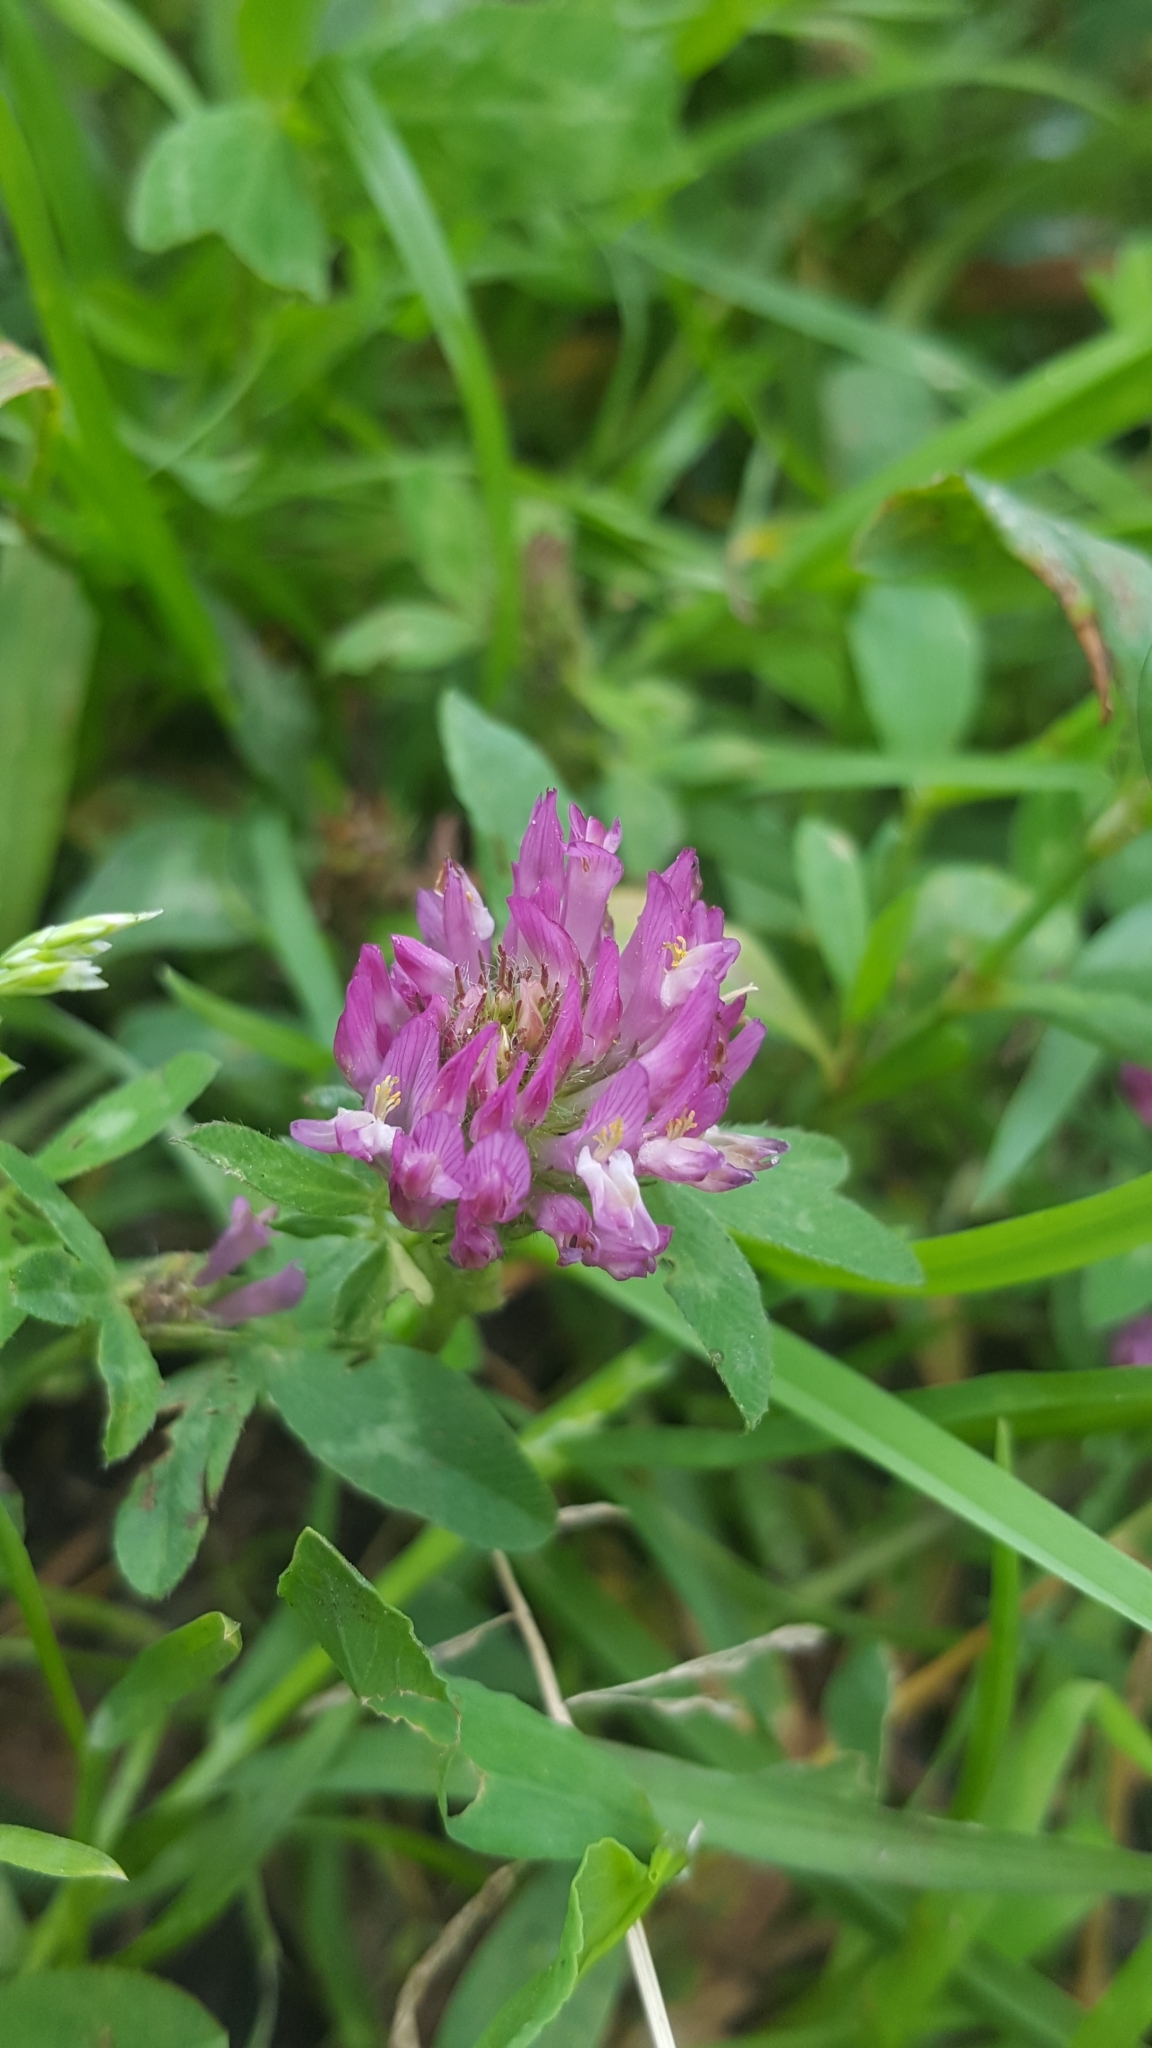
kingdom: Plantae
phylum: Tracheophyta
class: Magnoliopsida
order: Fabales
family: Fabaceae
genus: Trifolium
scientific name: Trifolium pratense
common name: Red clover
